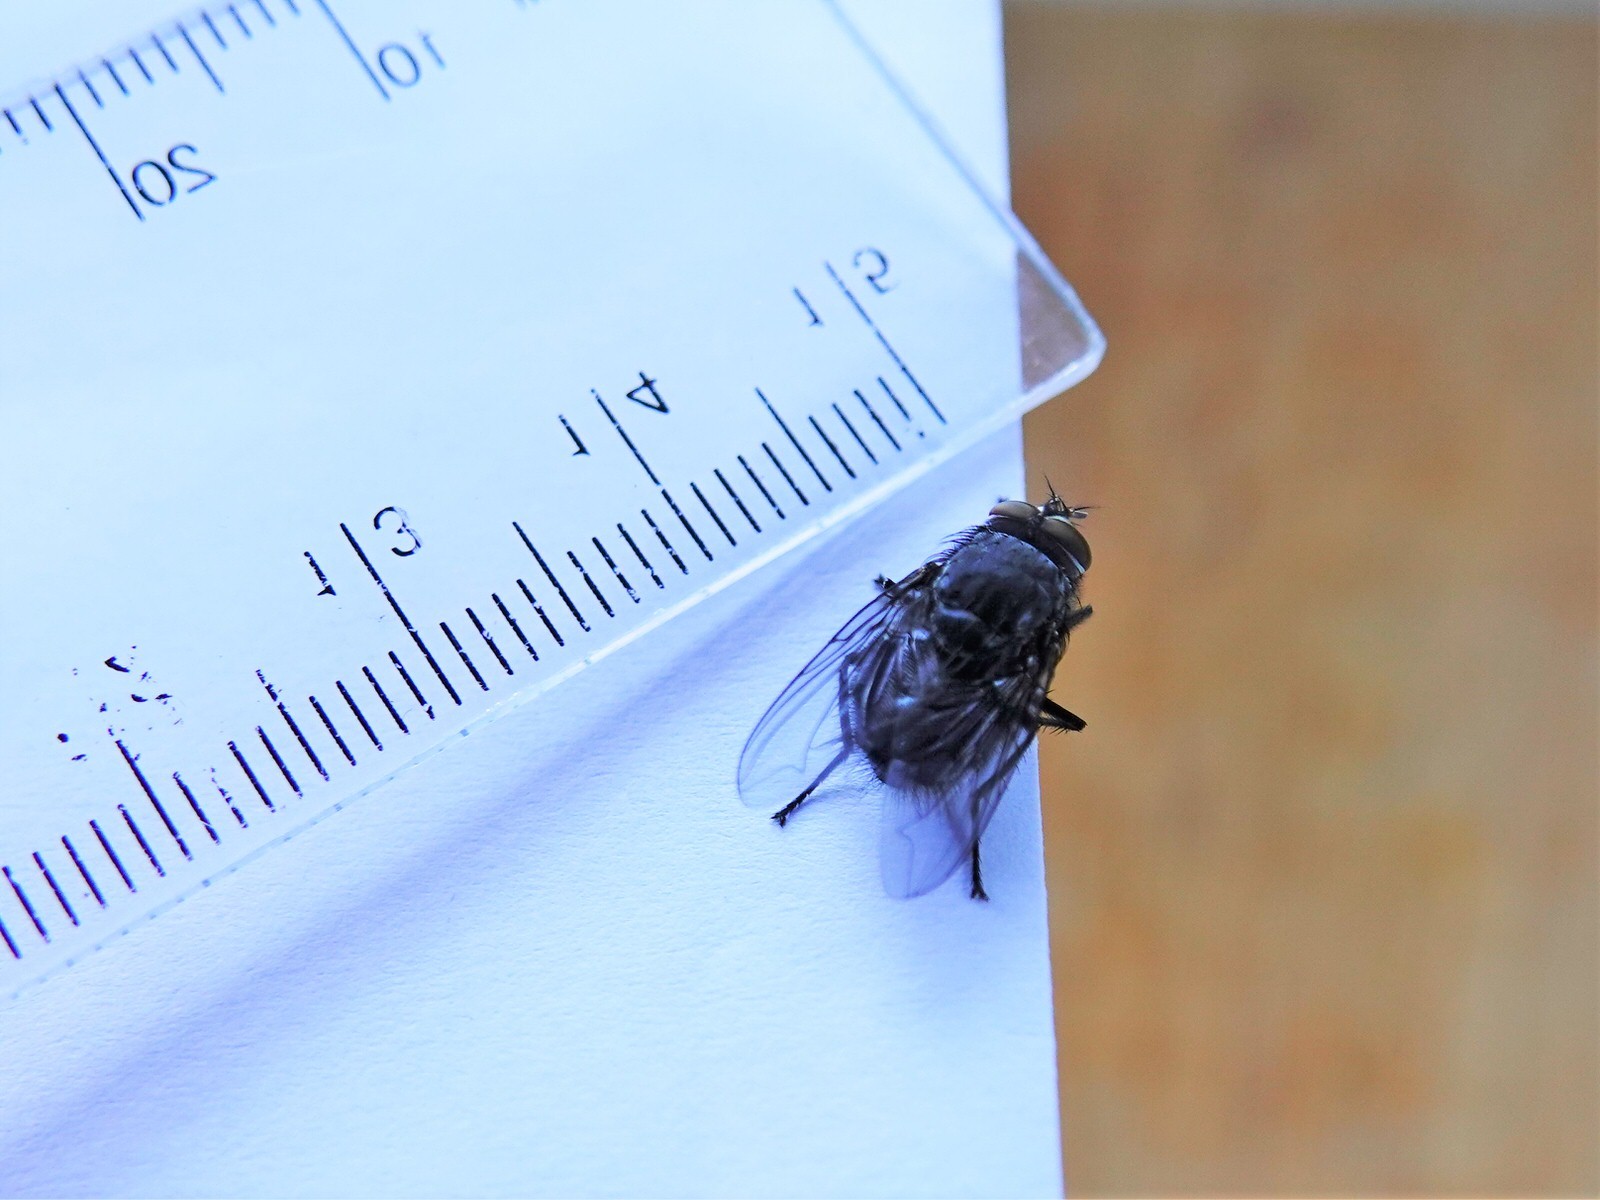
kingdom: Animalia
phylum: Arthropoda
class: Insecta
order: Diptera
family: Calliphoridae
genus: Calliphora
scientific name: Calliphora vicina
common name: Common blow flie
